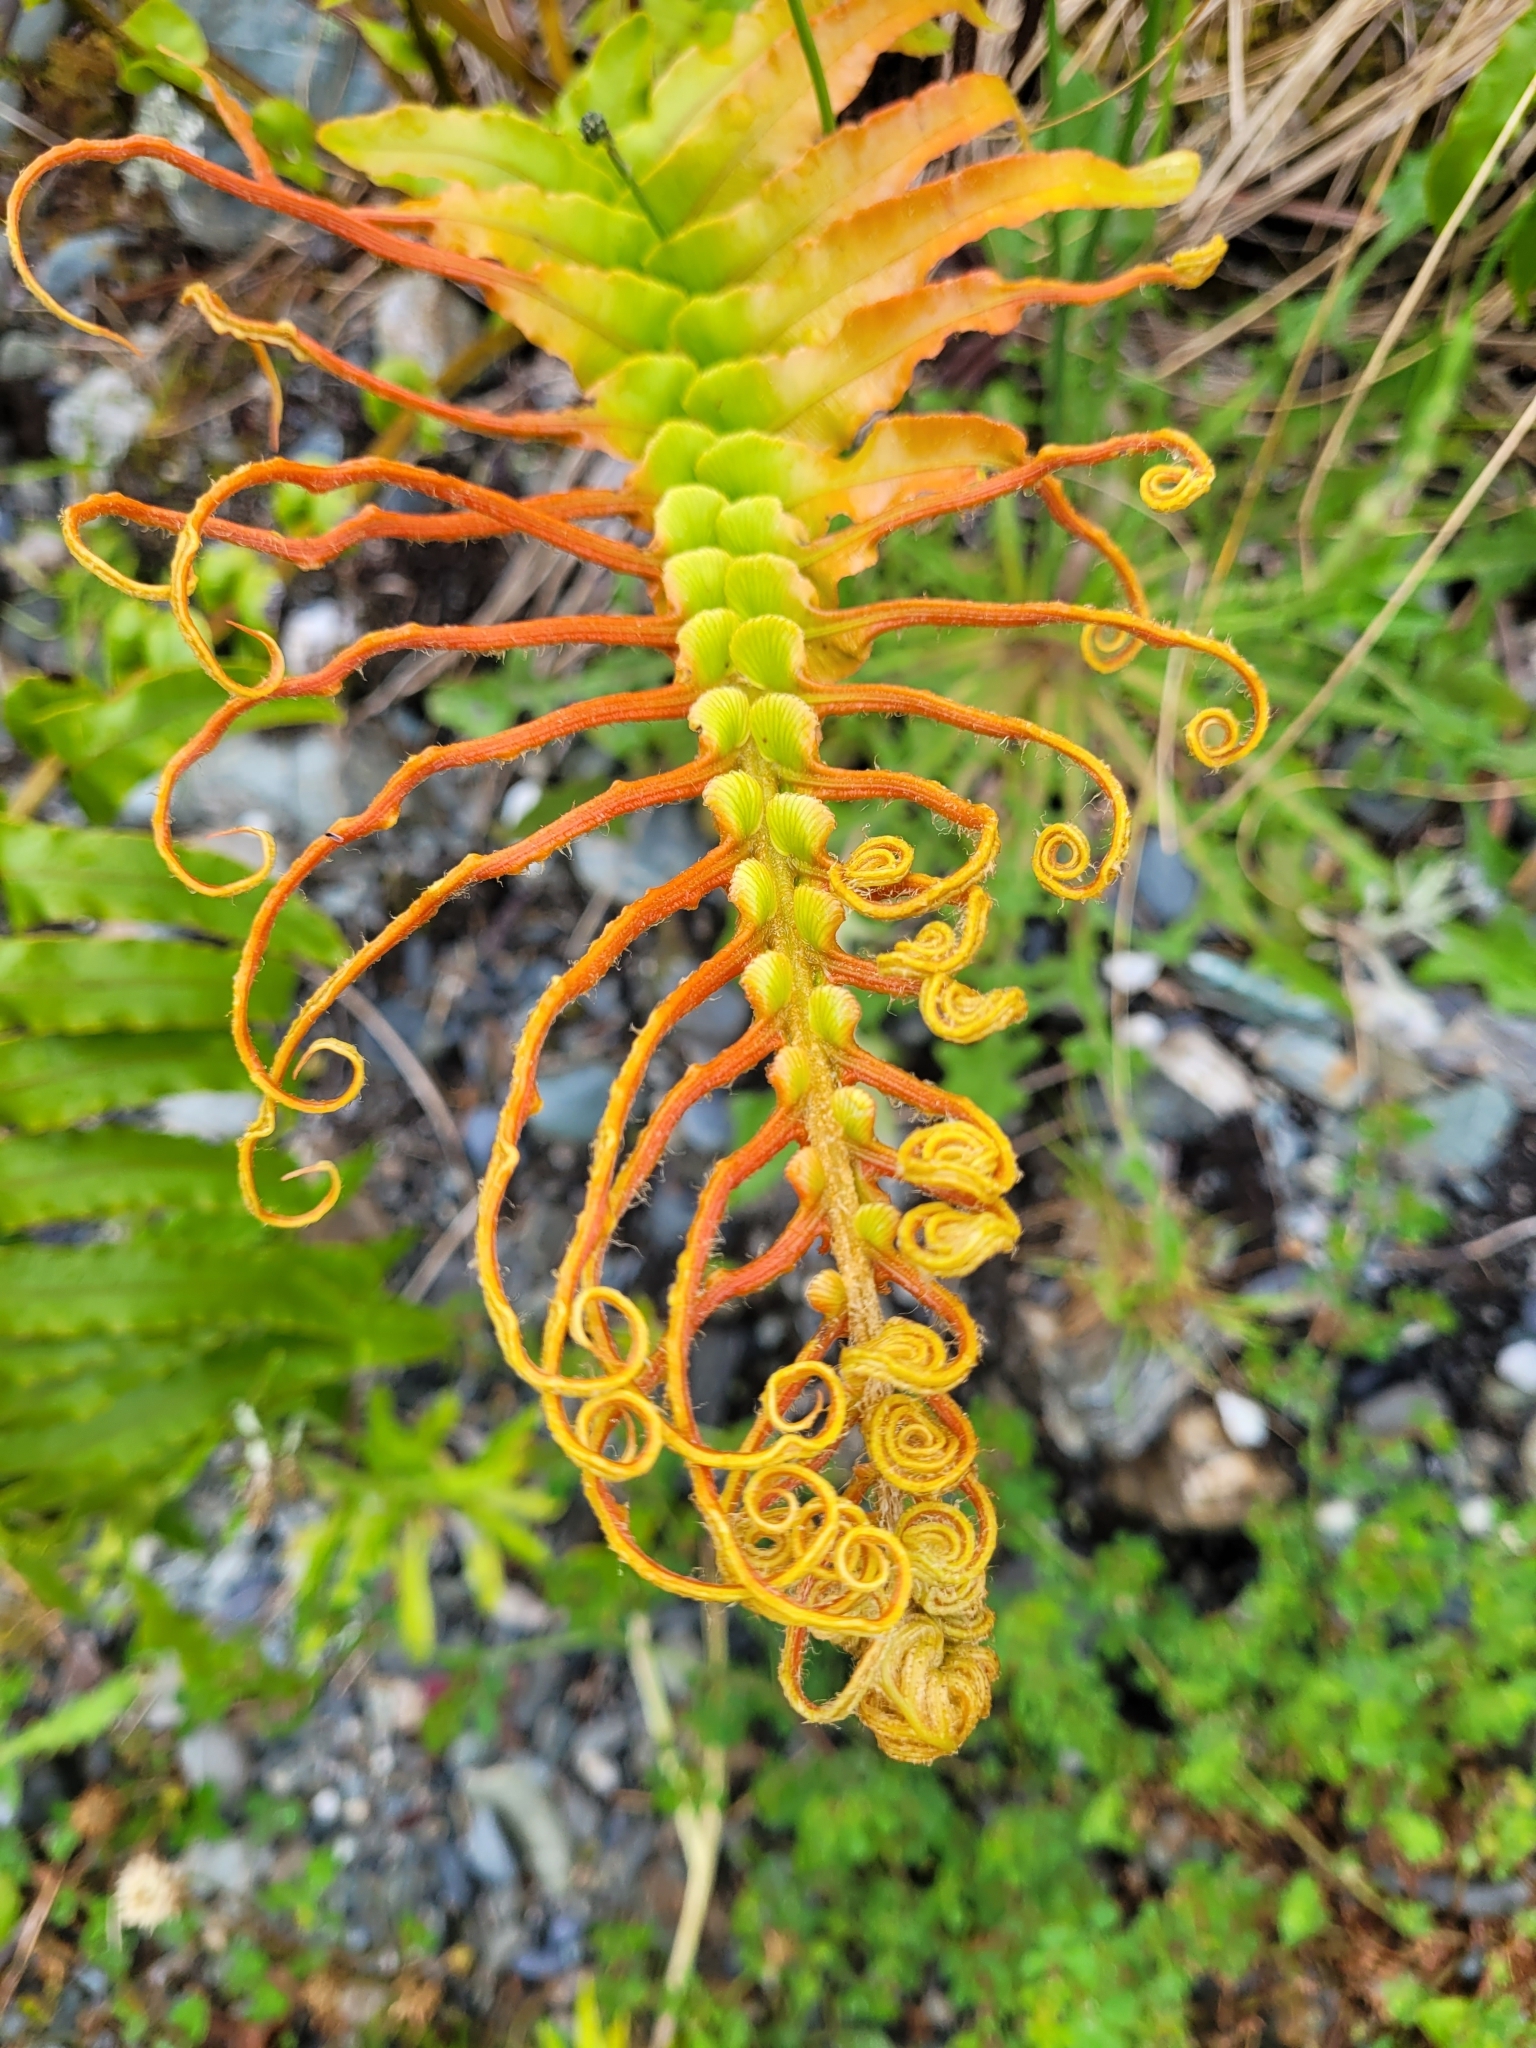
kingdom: Plantae
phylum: Tracheophyta
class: Polypodiopsida
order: Polypodiales
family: Blechnaceae
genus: Parablechnum
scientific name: Parablechnum novae-zelandiae
